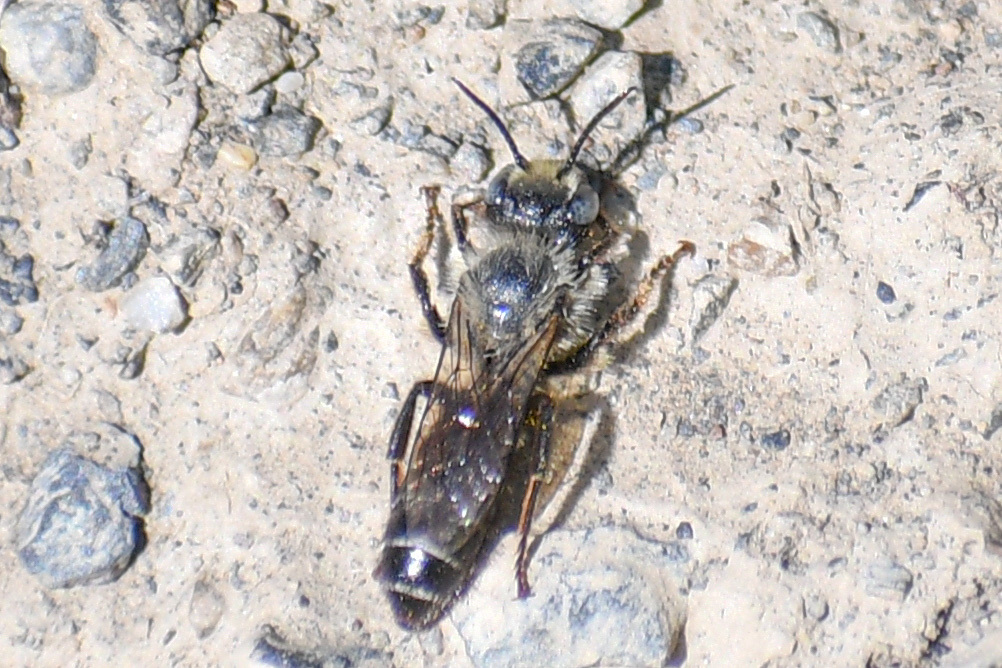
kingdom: Animalia
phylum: Arthropoda
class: Insecta
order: Hymenoptera
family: Megachilidae
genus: Hoplitis
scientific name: Hoplitis albifrons
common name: White-fronted small-mason
